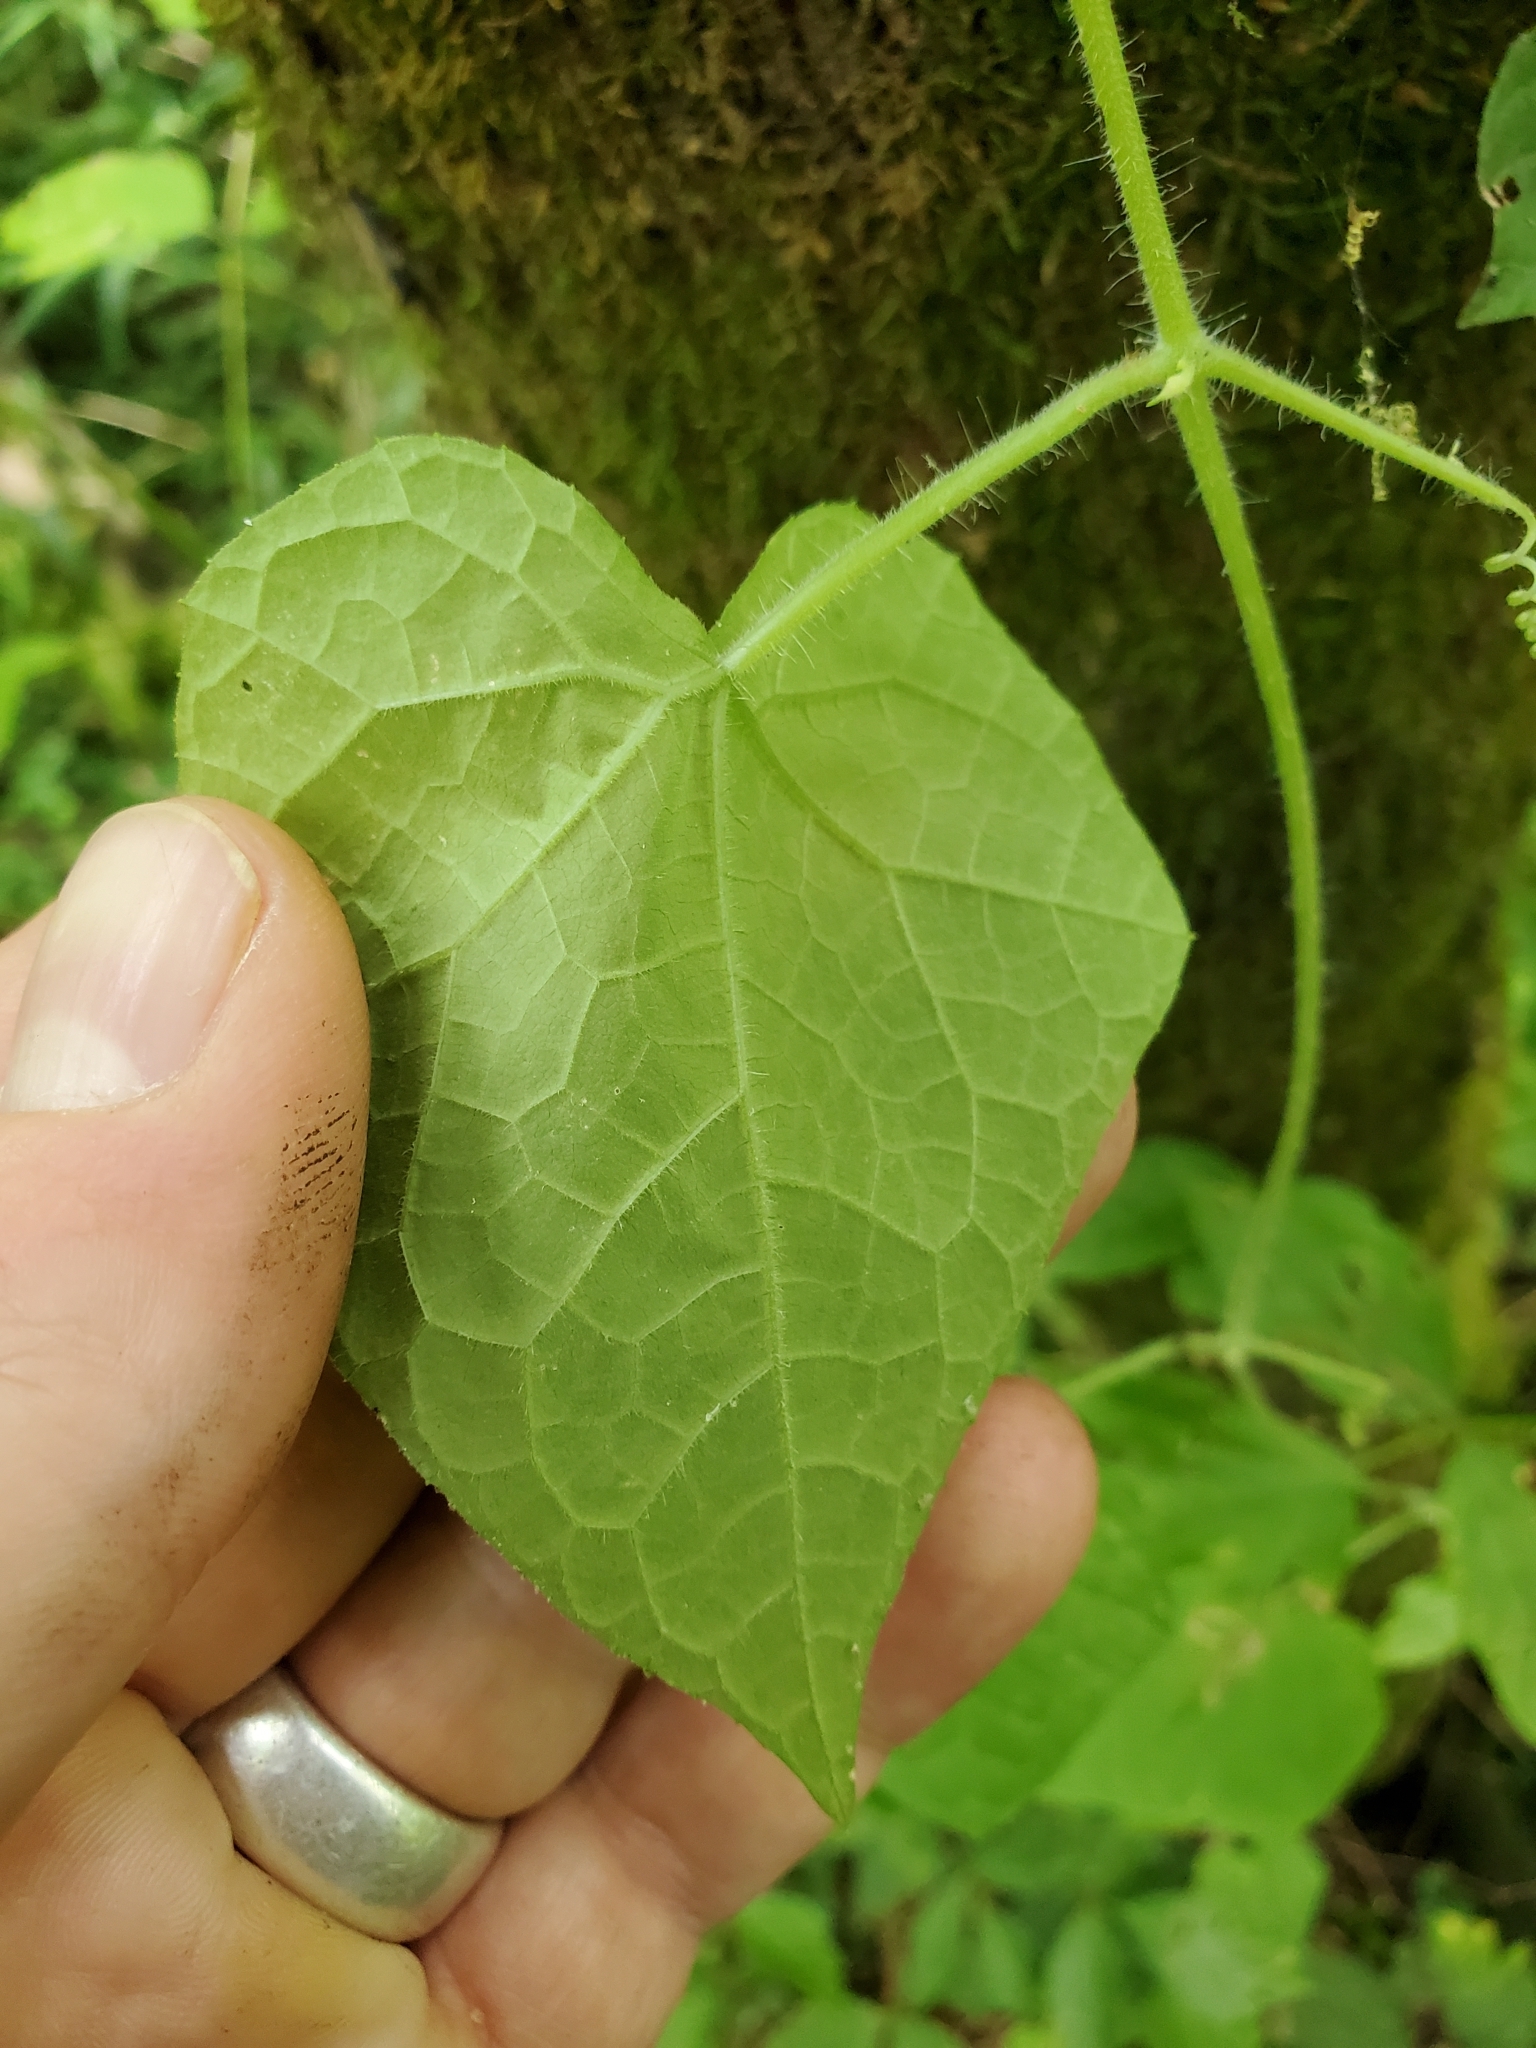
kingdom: Plantae
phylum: Tracheophyta
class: Magnoliopsida
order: Cucurbitales
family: Cucurbitaceae
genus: Sicyos
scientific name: Sicyos angulatus
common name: Angled burr cucumber
